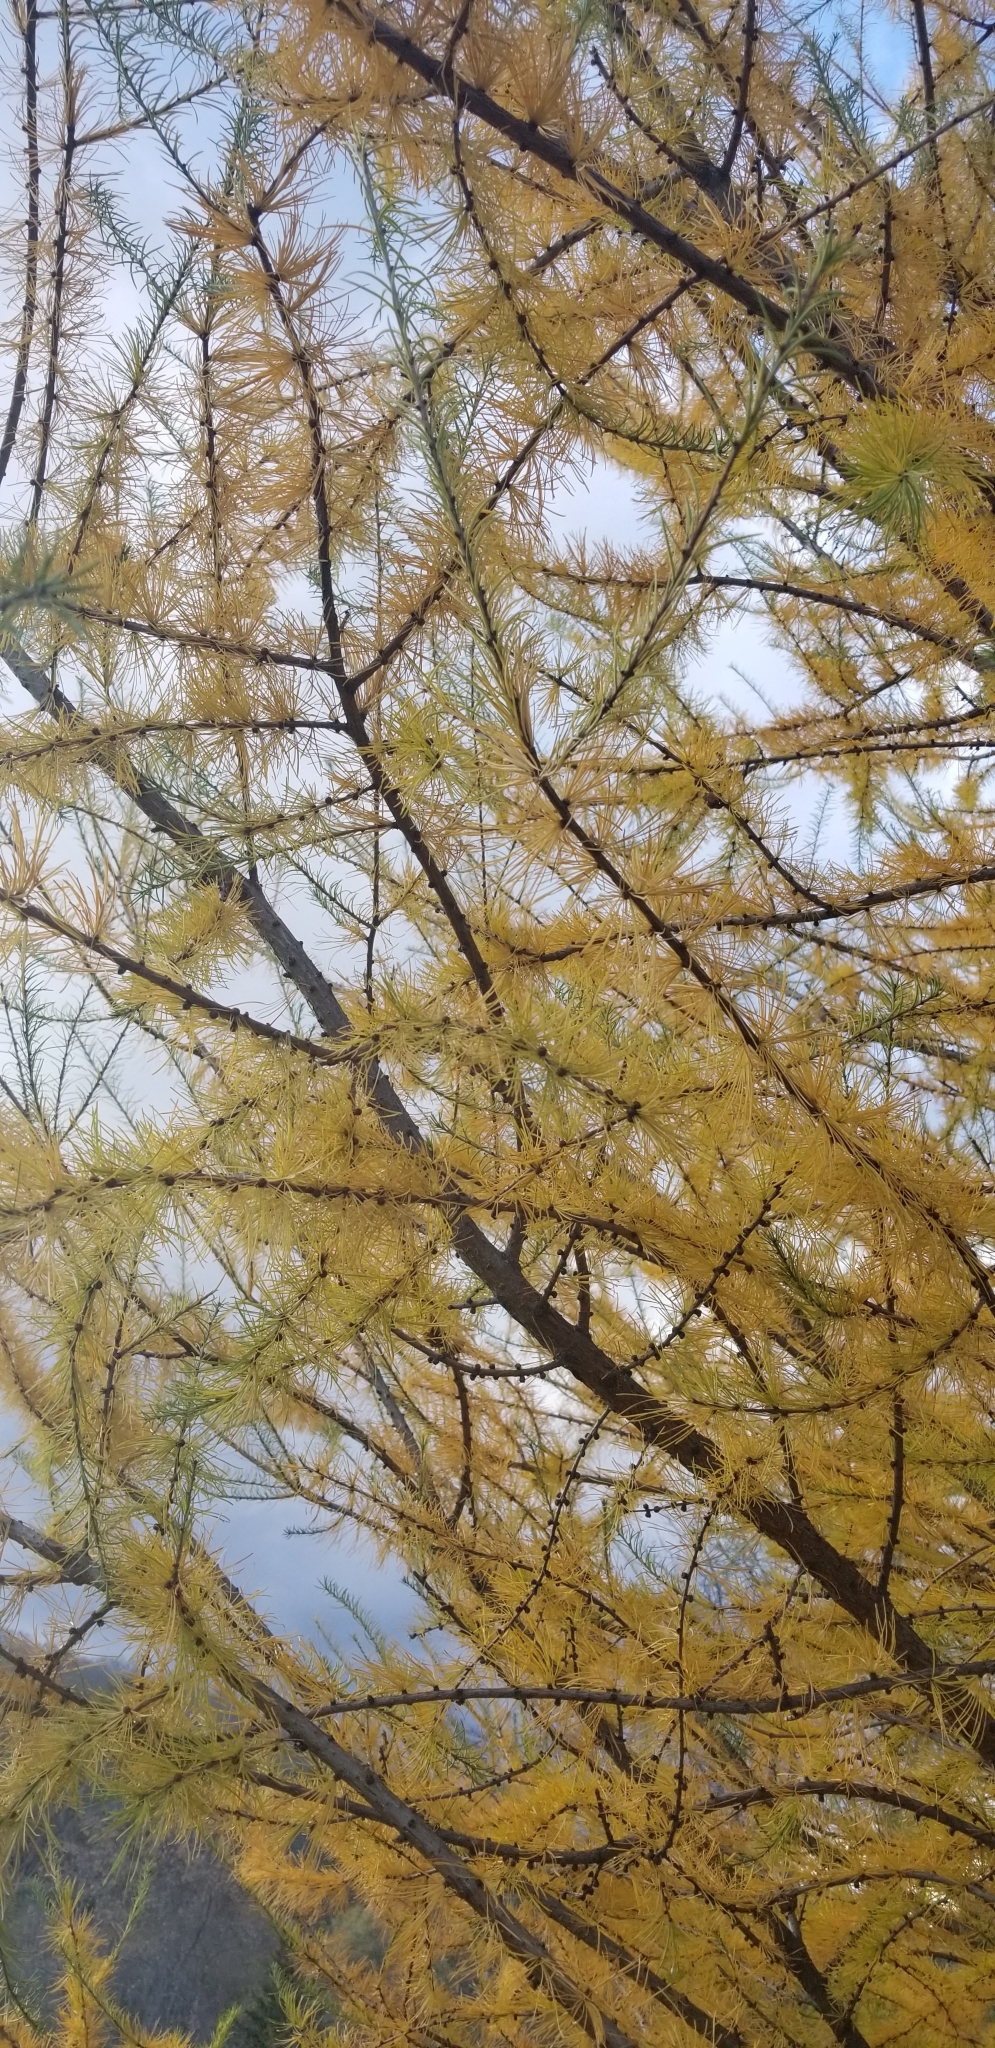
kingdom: Plantae
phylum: Tracheophyta
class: Pinopsida
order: Pinales
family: Pinaceae
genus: Larix
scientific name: Larix laricina
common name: American larch
